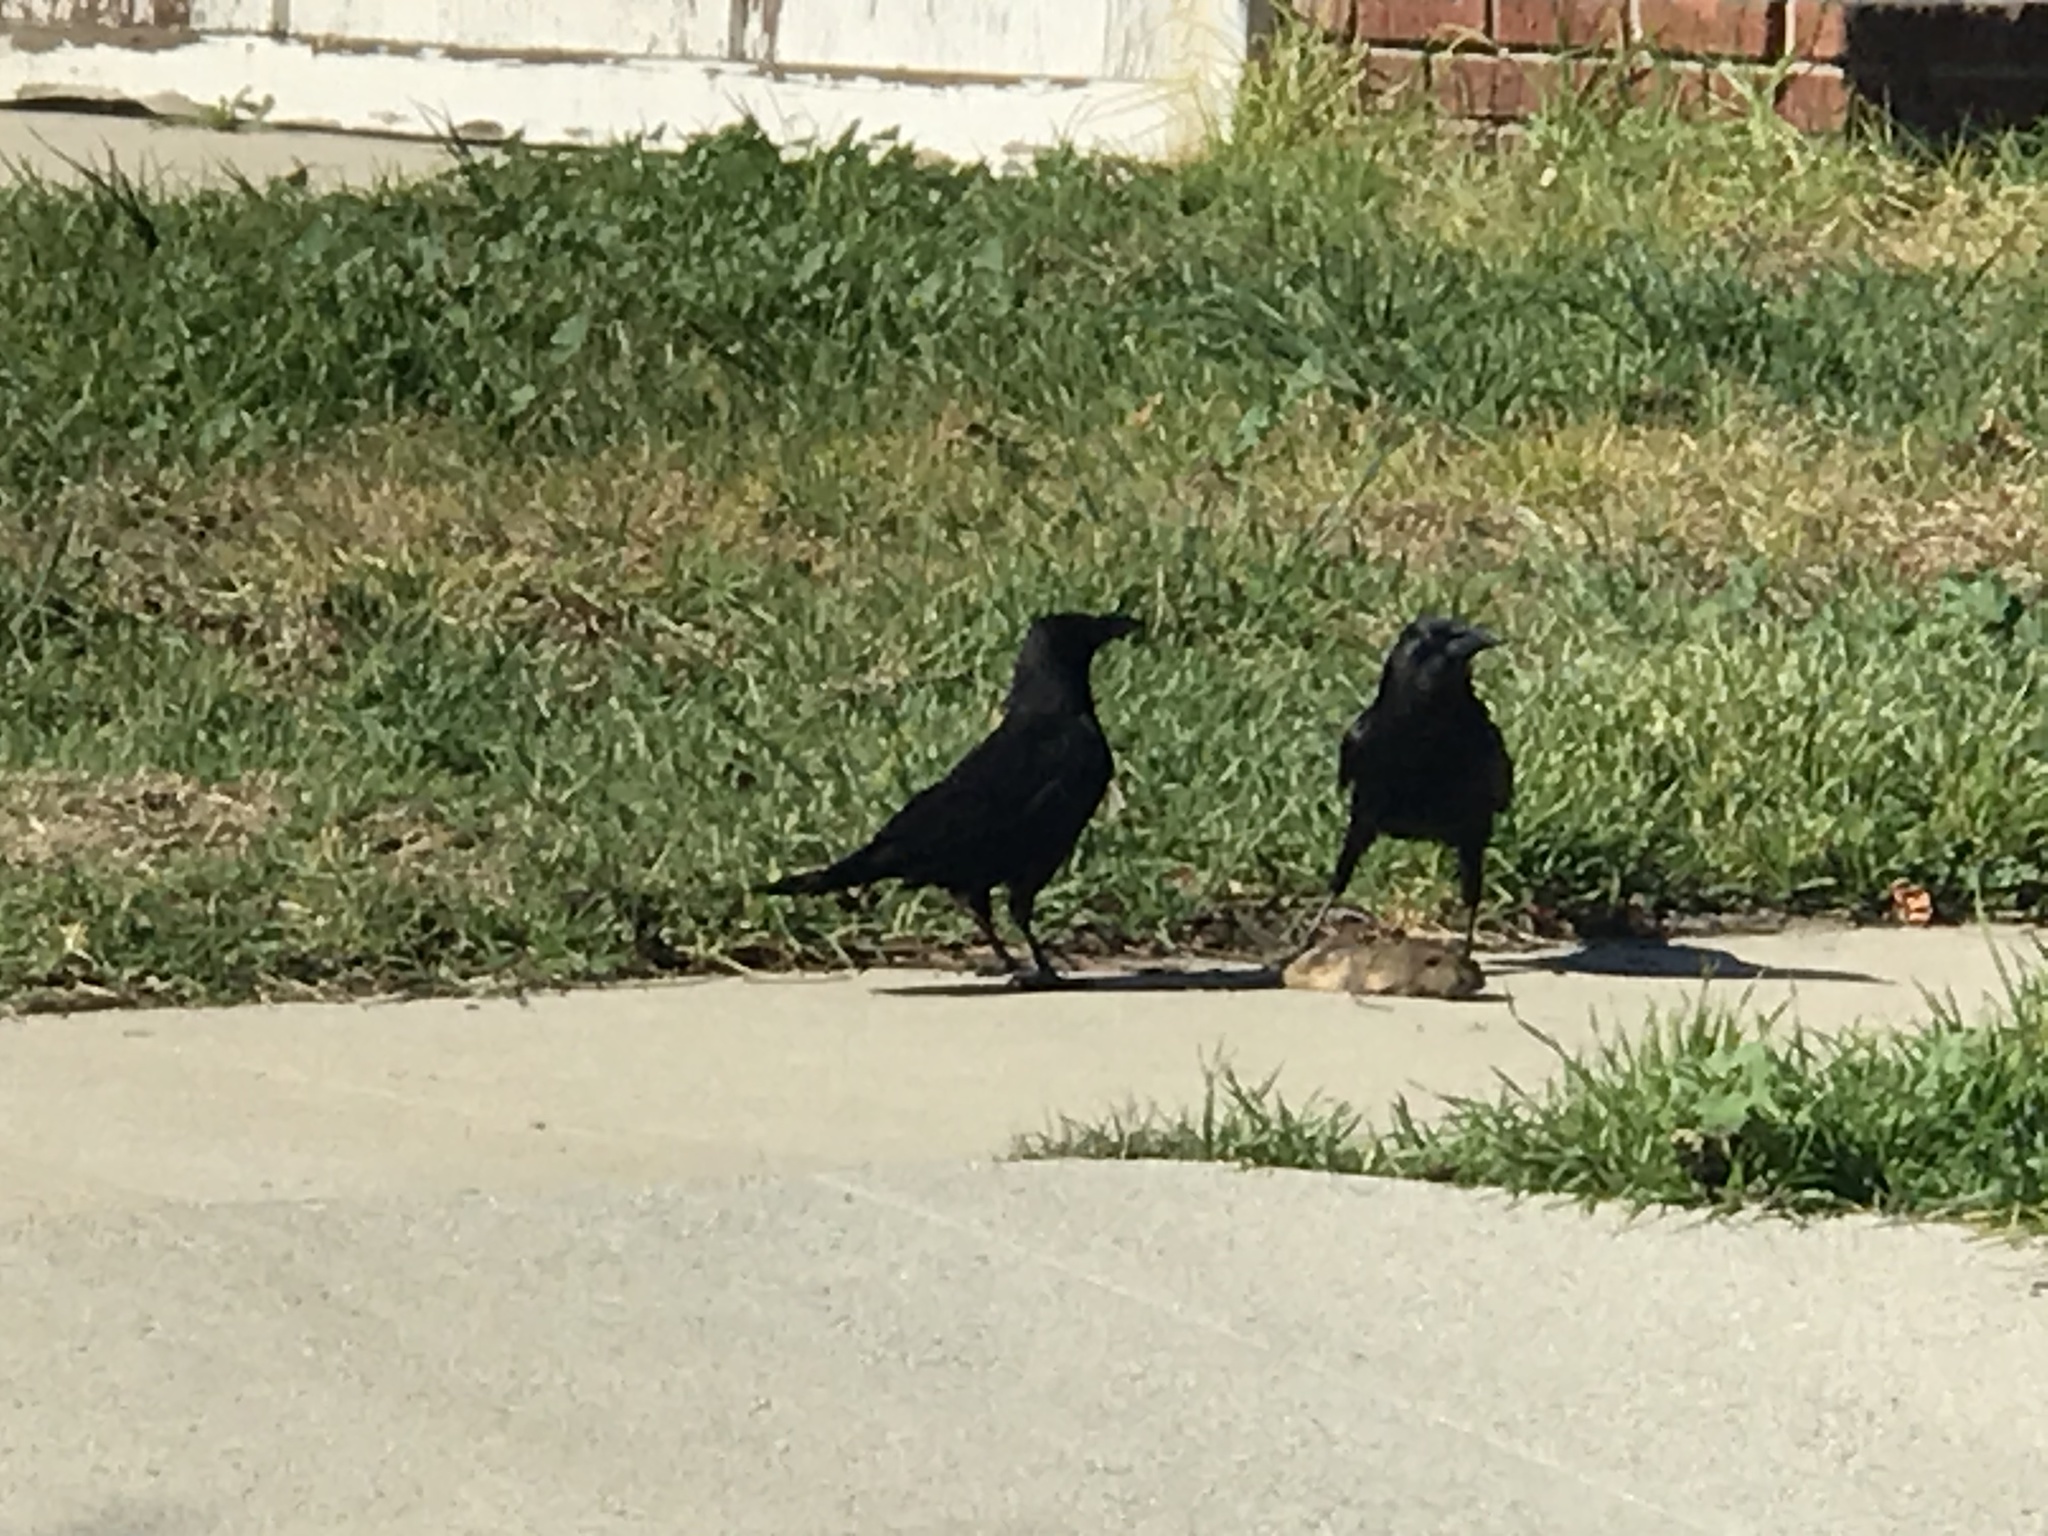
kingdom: Animalia
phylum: Chordata
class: Aves
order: Passeriformes
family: Corvidae
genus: Corvus
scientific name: Corvus brachyrhynchos
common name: American crow
